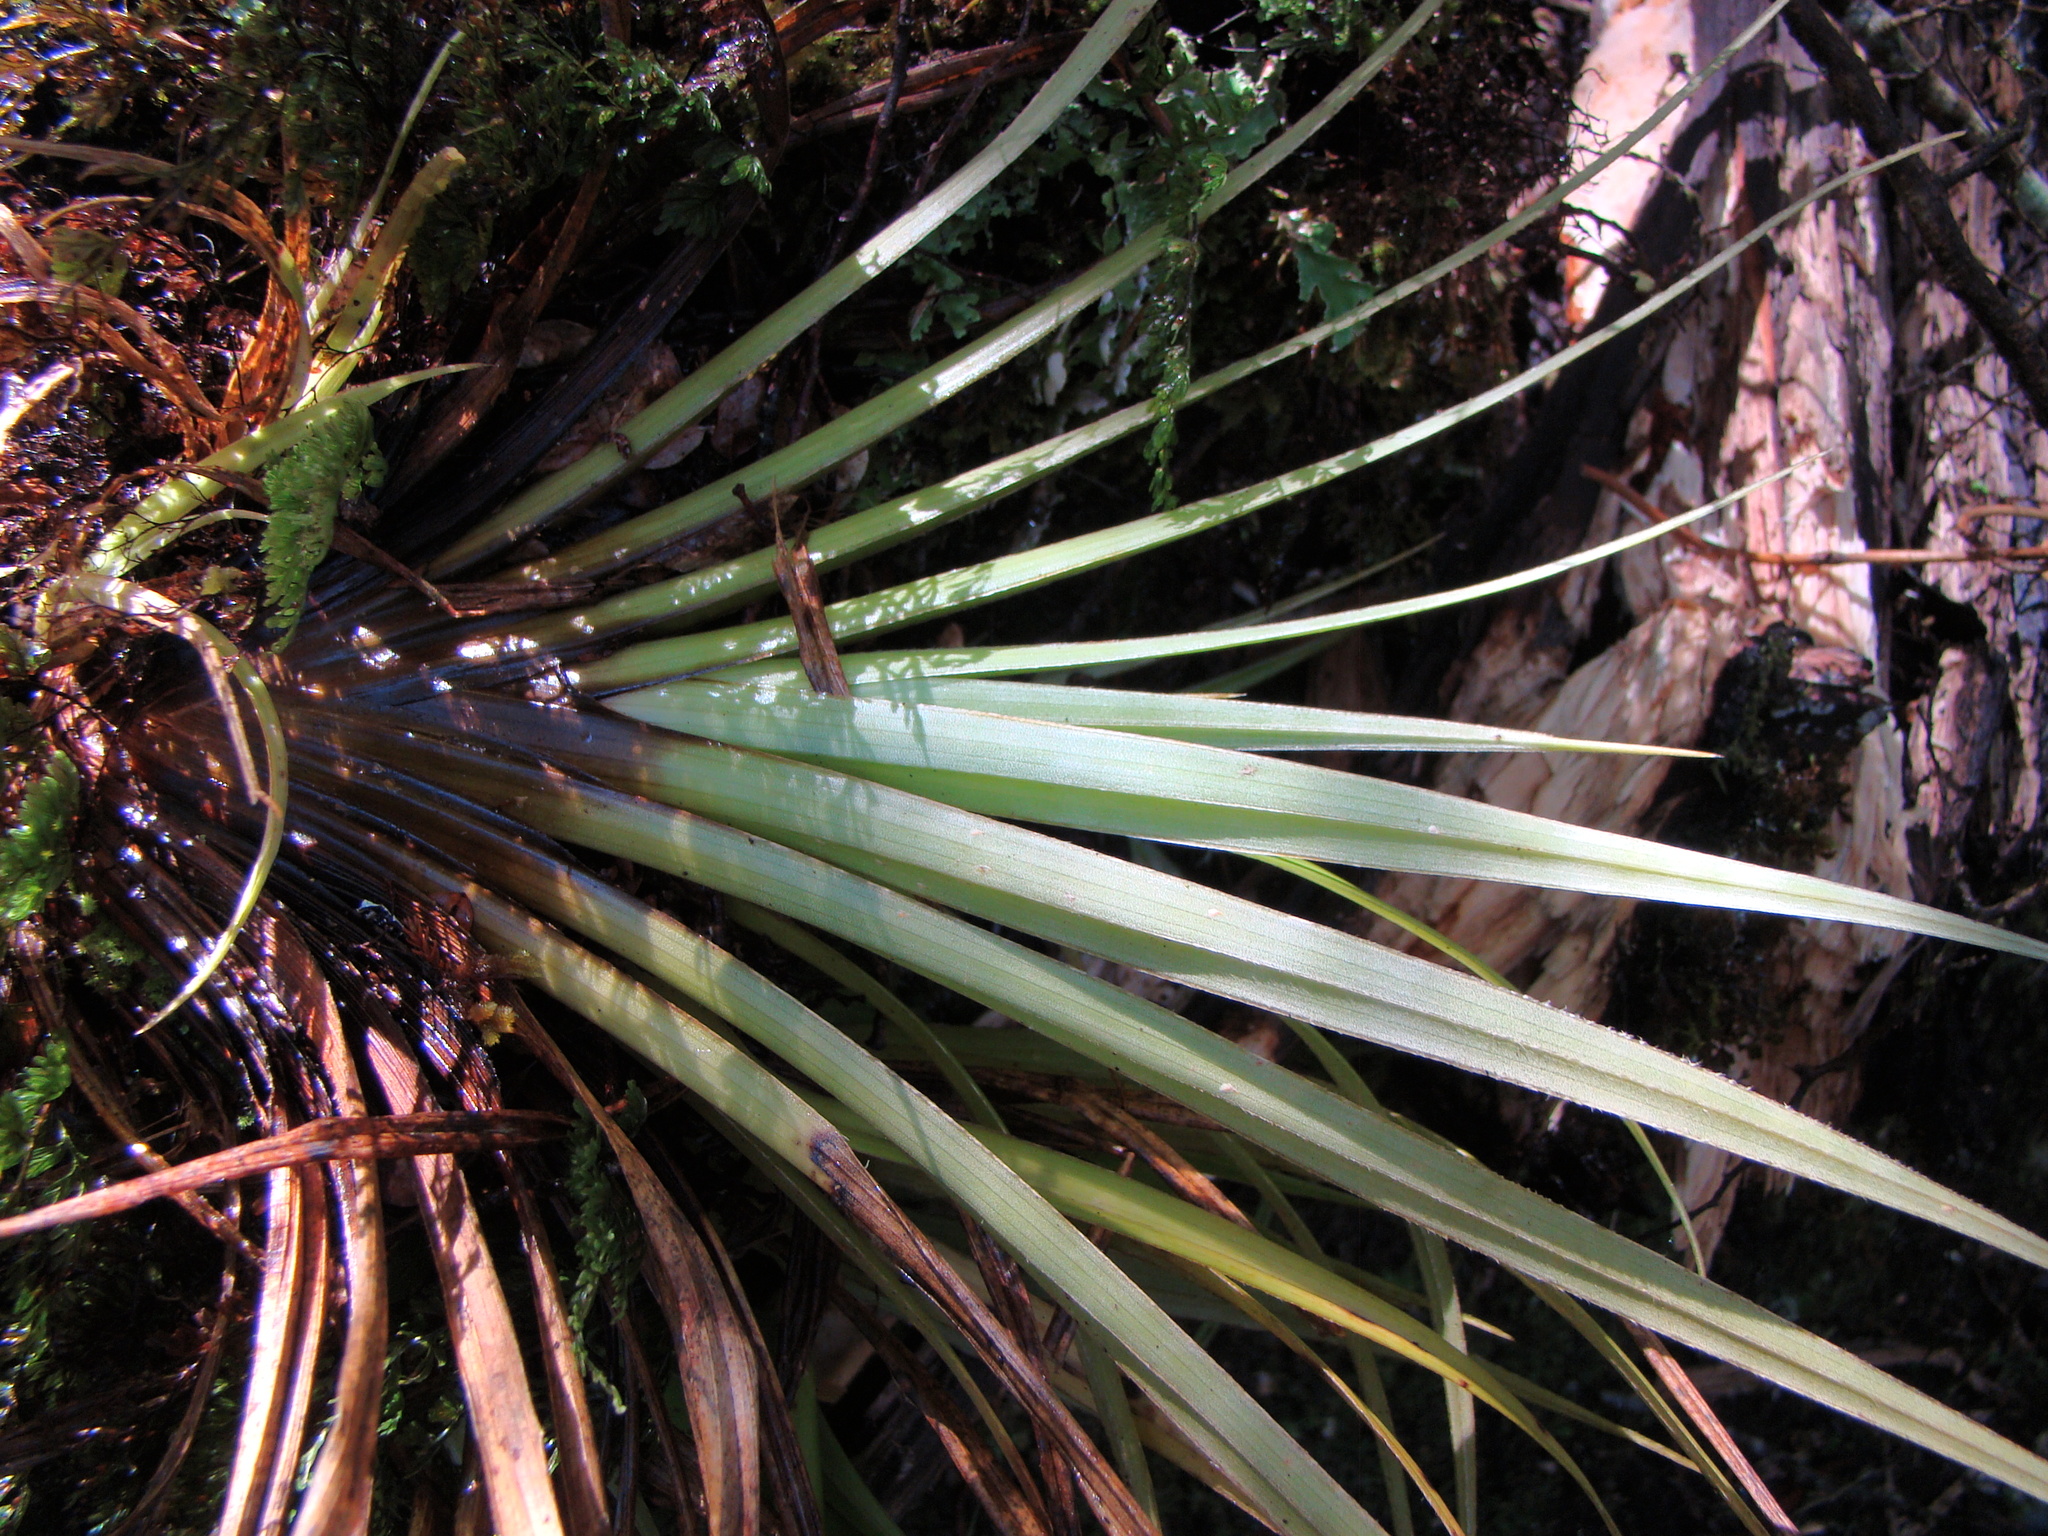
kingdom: Plantae
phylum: Tracheophyta
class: Liliopsida
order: Asparagales
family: Asteliaceae
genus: Astelia
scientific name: Astelia microsperma
